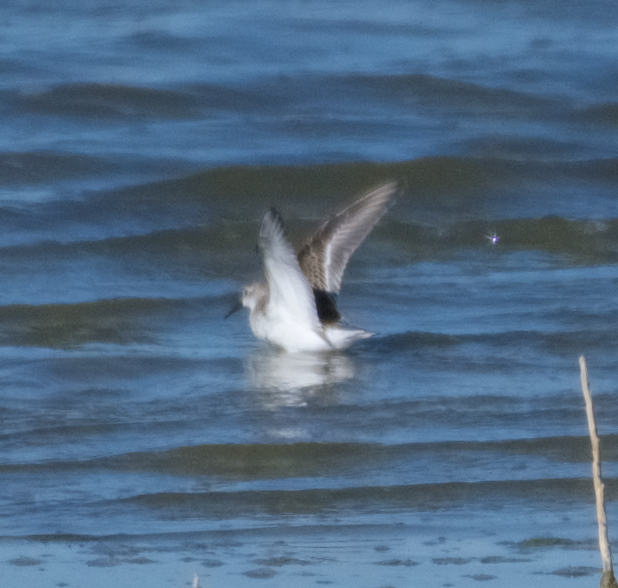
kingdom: Animalia
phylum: Chordata
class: Aves
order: Charadriiformes
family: Scolopacidae
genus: Calidris
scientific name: Calidris mauri
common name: Western sandpiper
